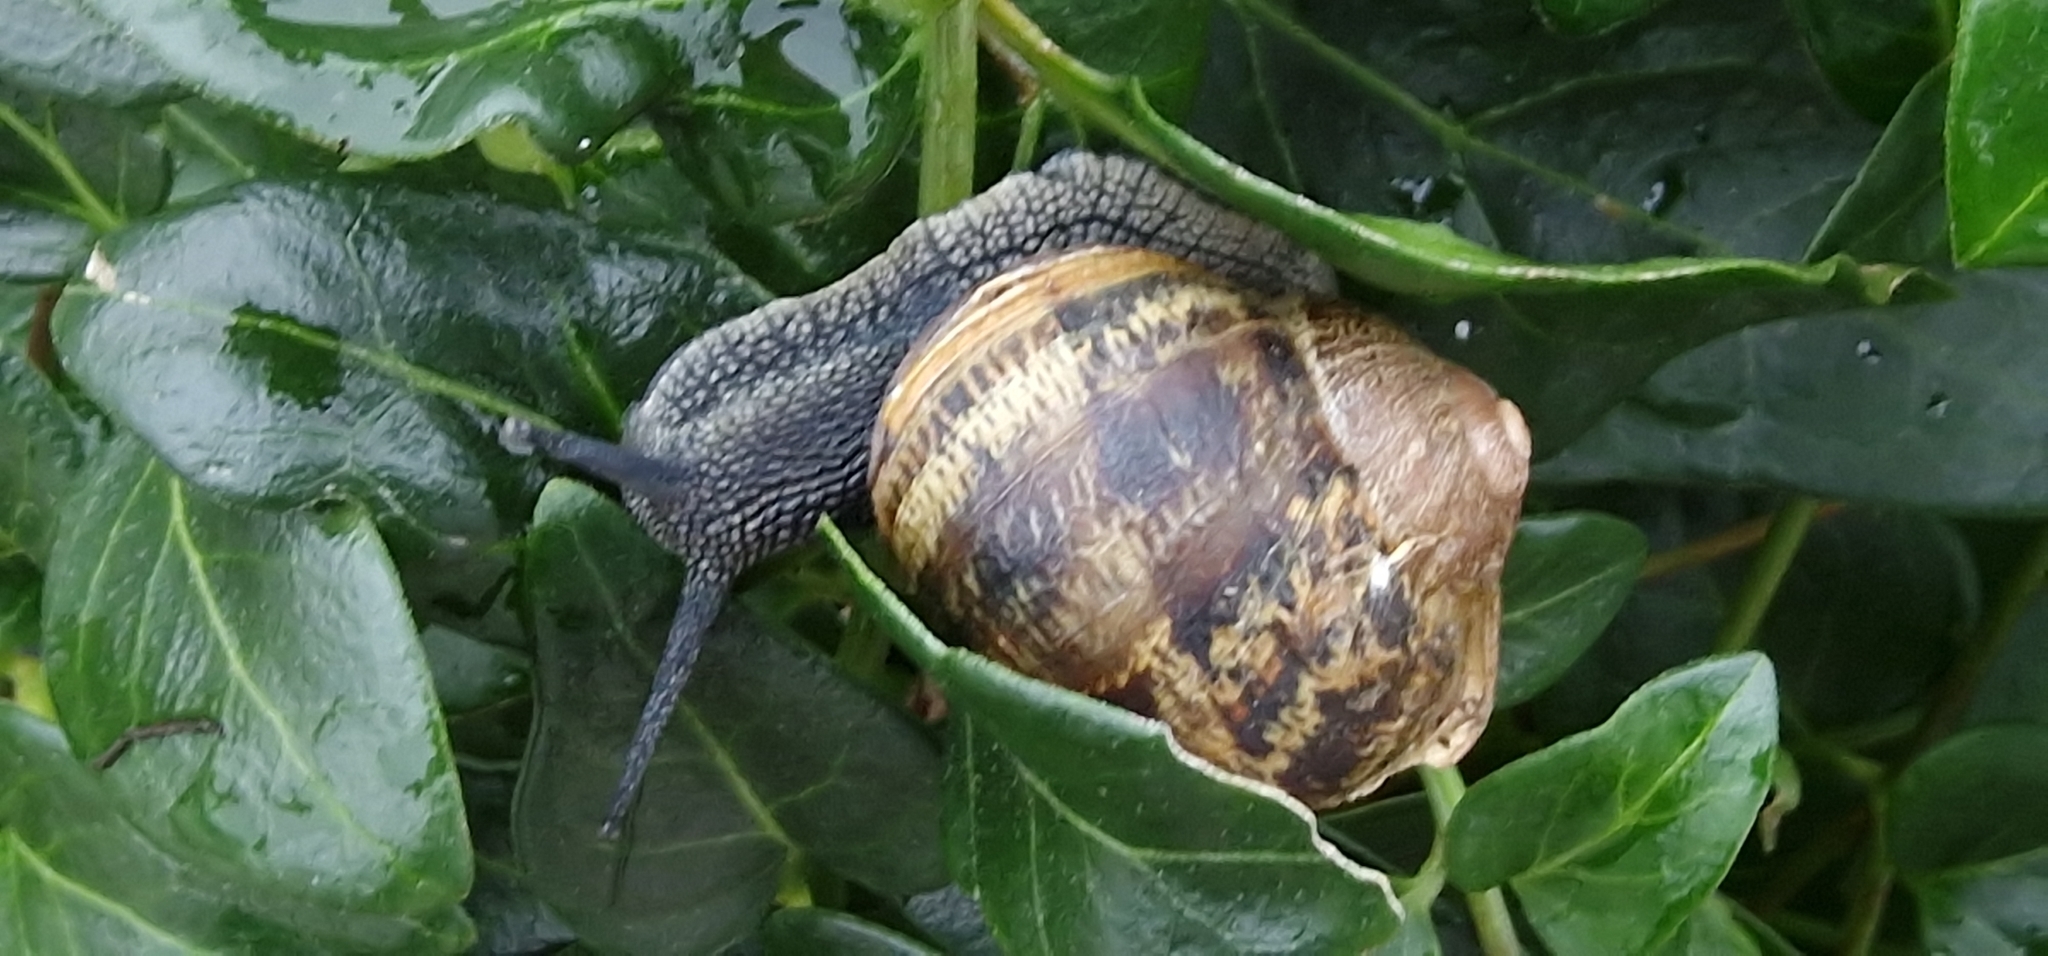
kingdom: Animalia
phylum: Mollusca
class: Gastropoda
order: Stylommatophora
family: Helicidae
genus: Cornu
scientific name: Cornu aspersum
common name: Brown garden snail
